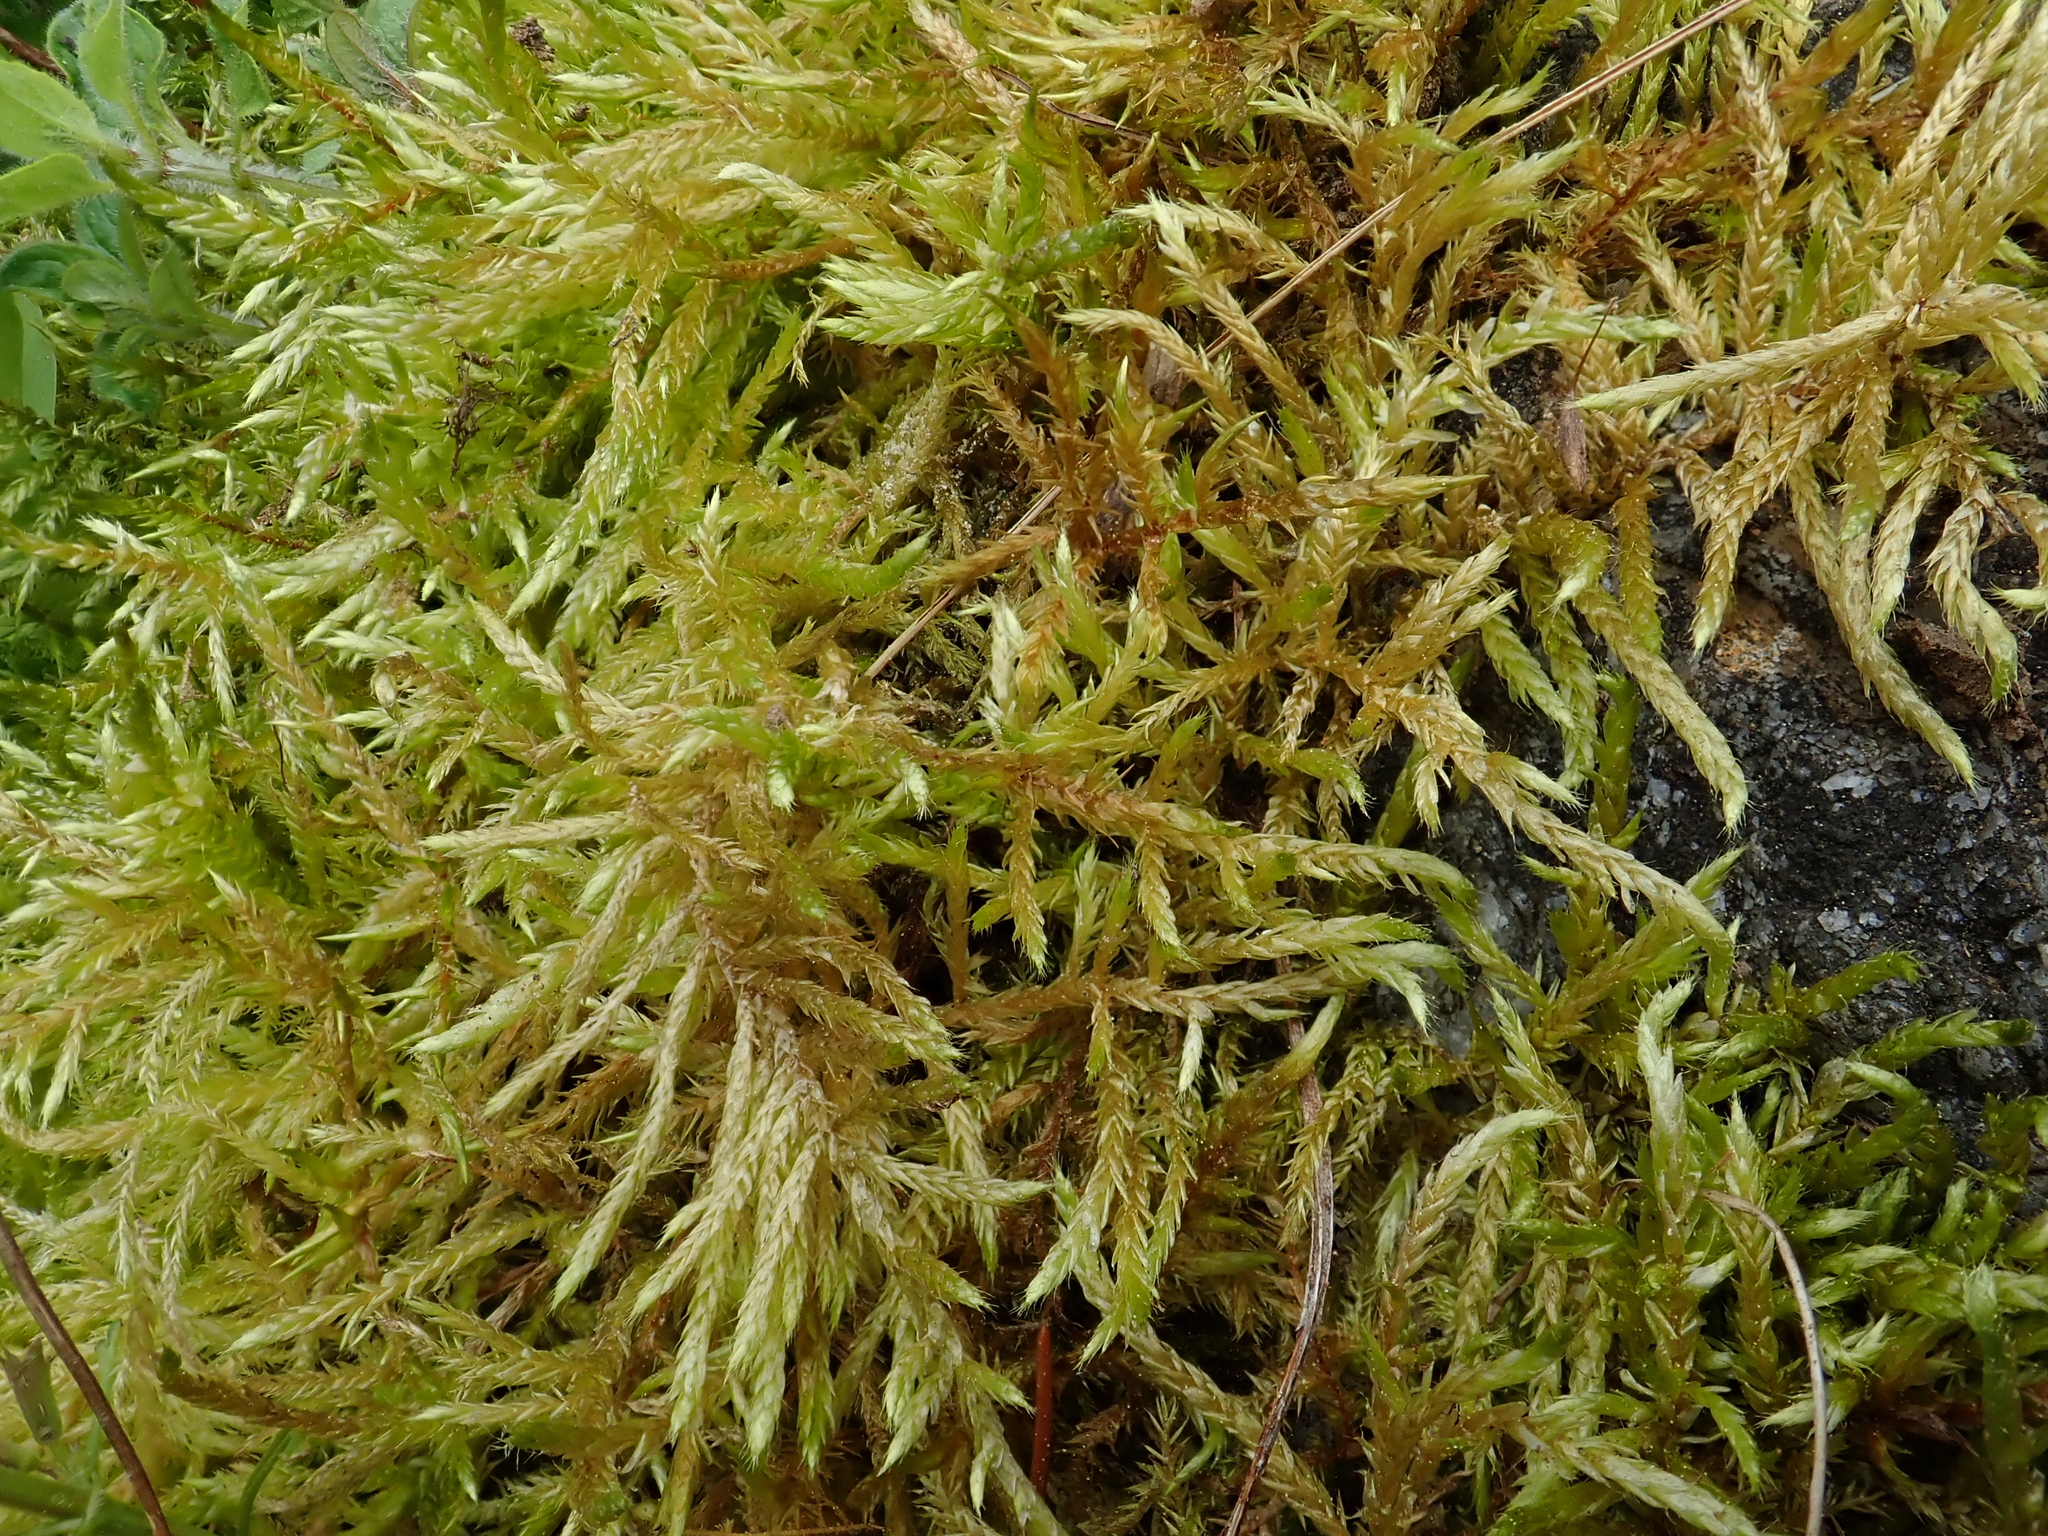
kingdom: Plantae
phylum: Bryophyta
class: Bryopsida
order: Hypnales
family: Brachytheciaceae
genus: Cirriphyllum
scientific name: Cirriphyllum piliferum
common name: Hair-pointed moss
